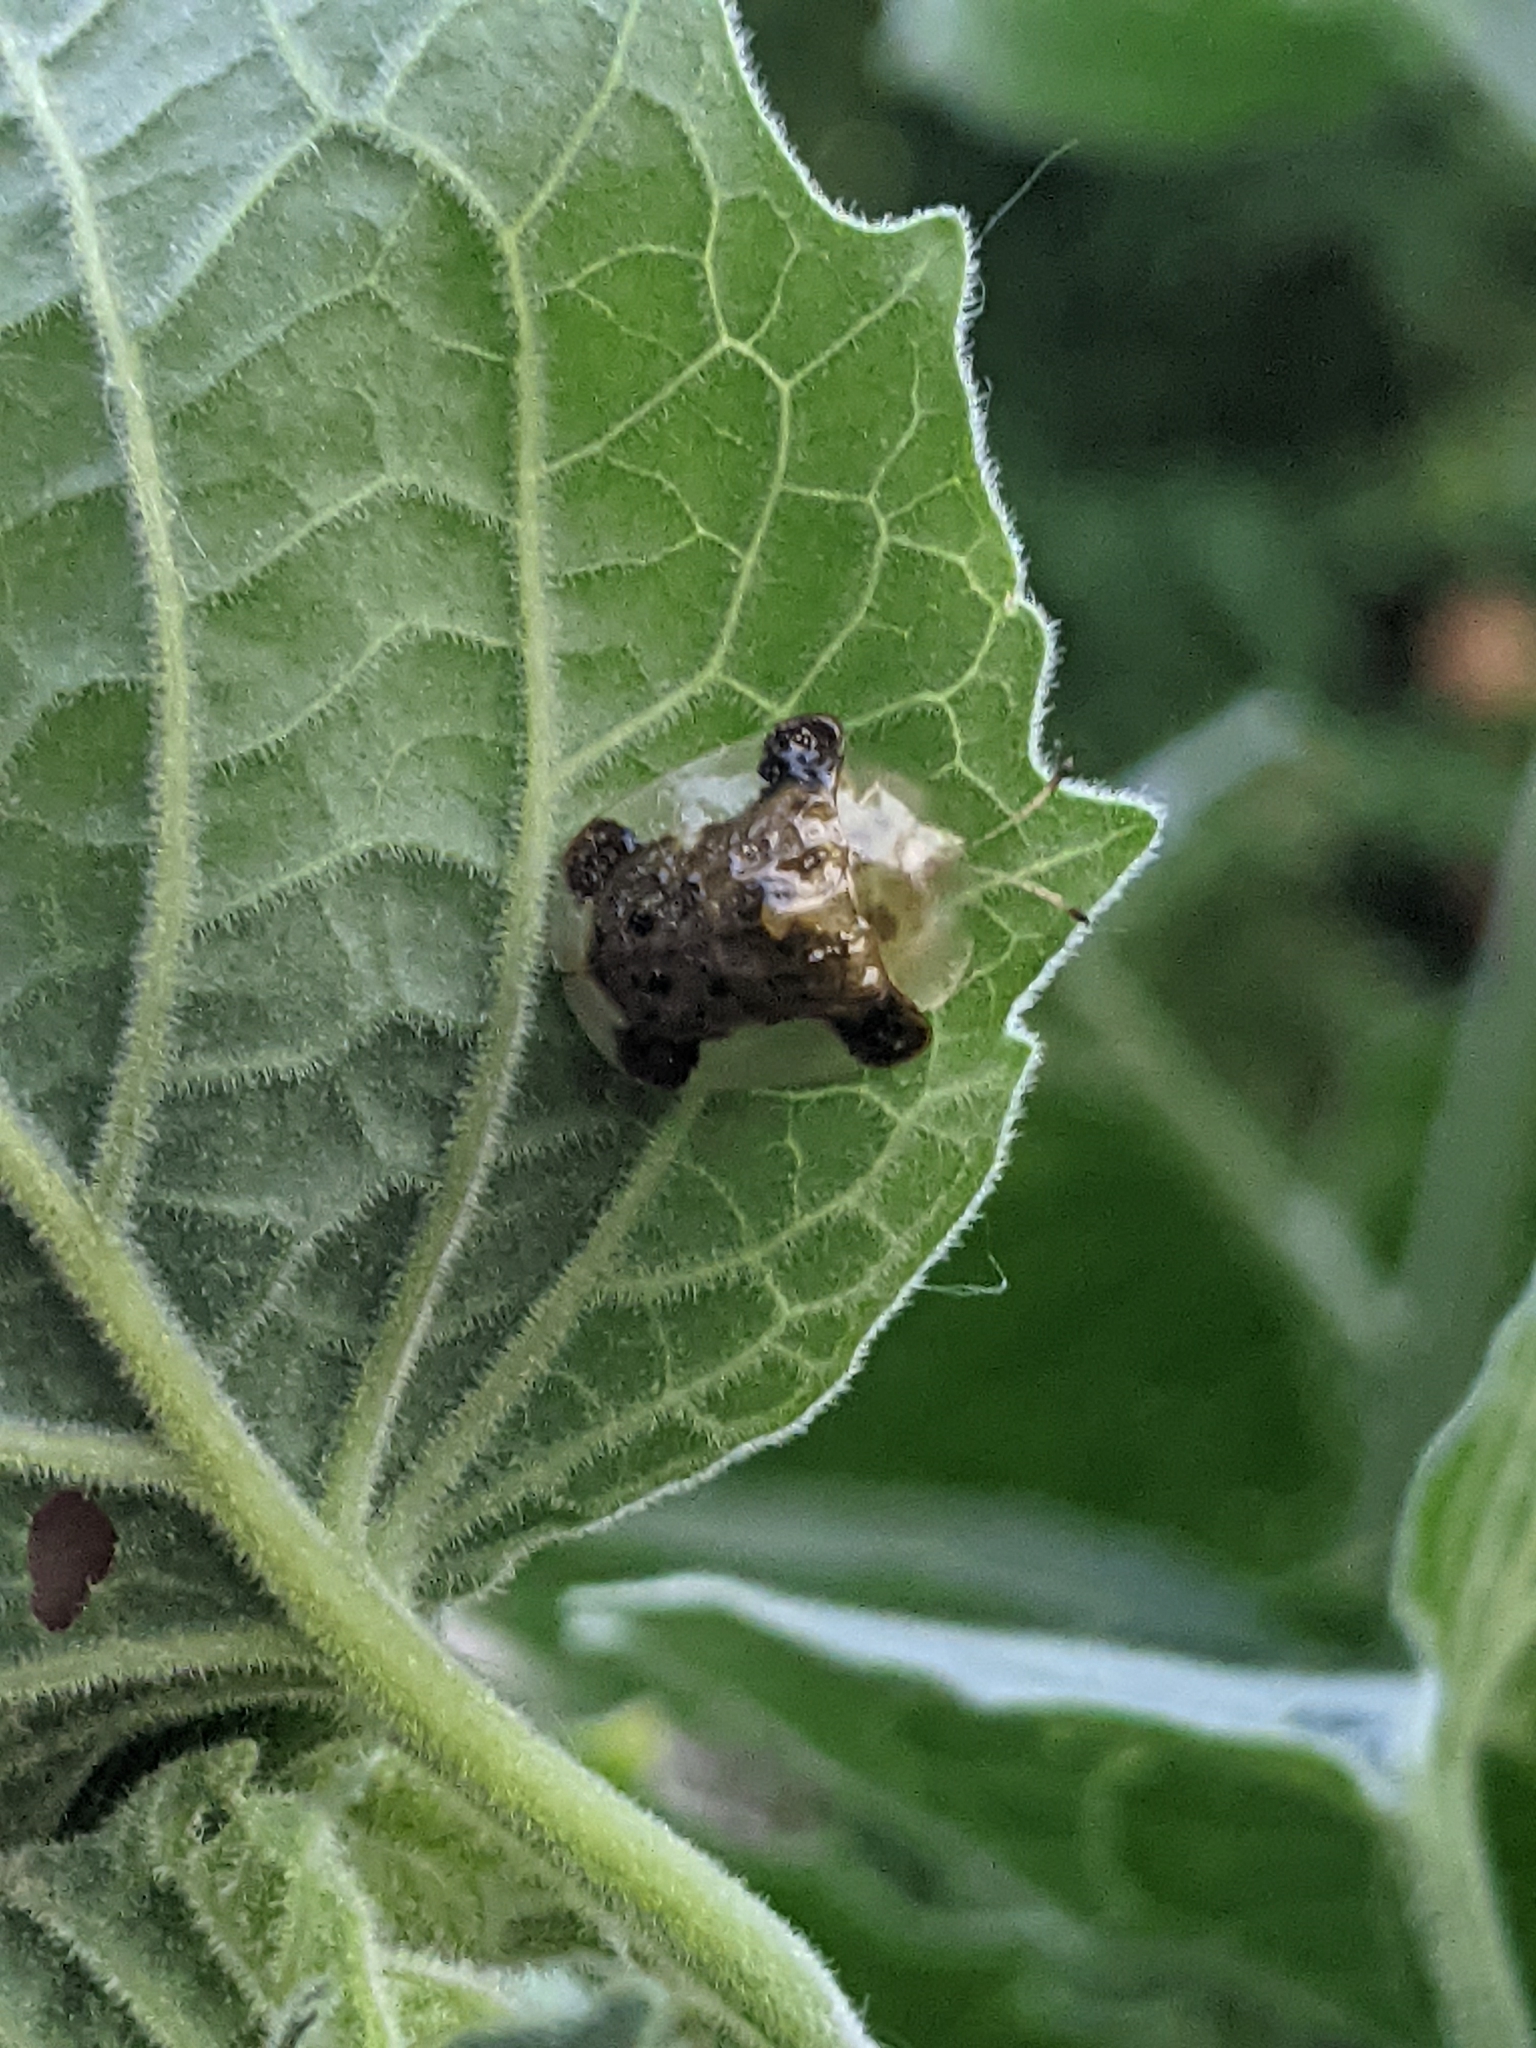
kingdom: Animalia
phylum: Arthropoda
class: Insecta
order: Coleoptera
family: Chrysomelidae
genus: Helocassis
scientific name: Helocassis clavata
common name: Clavate tortoise beetle
